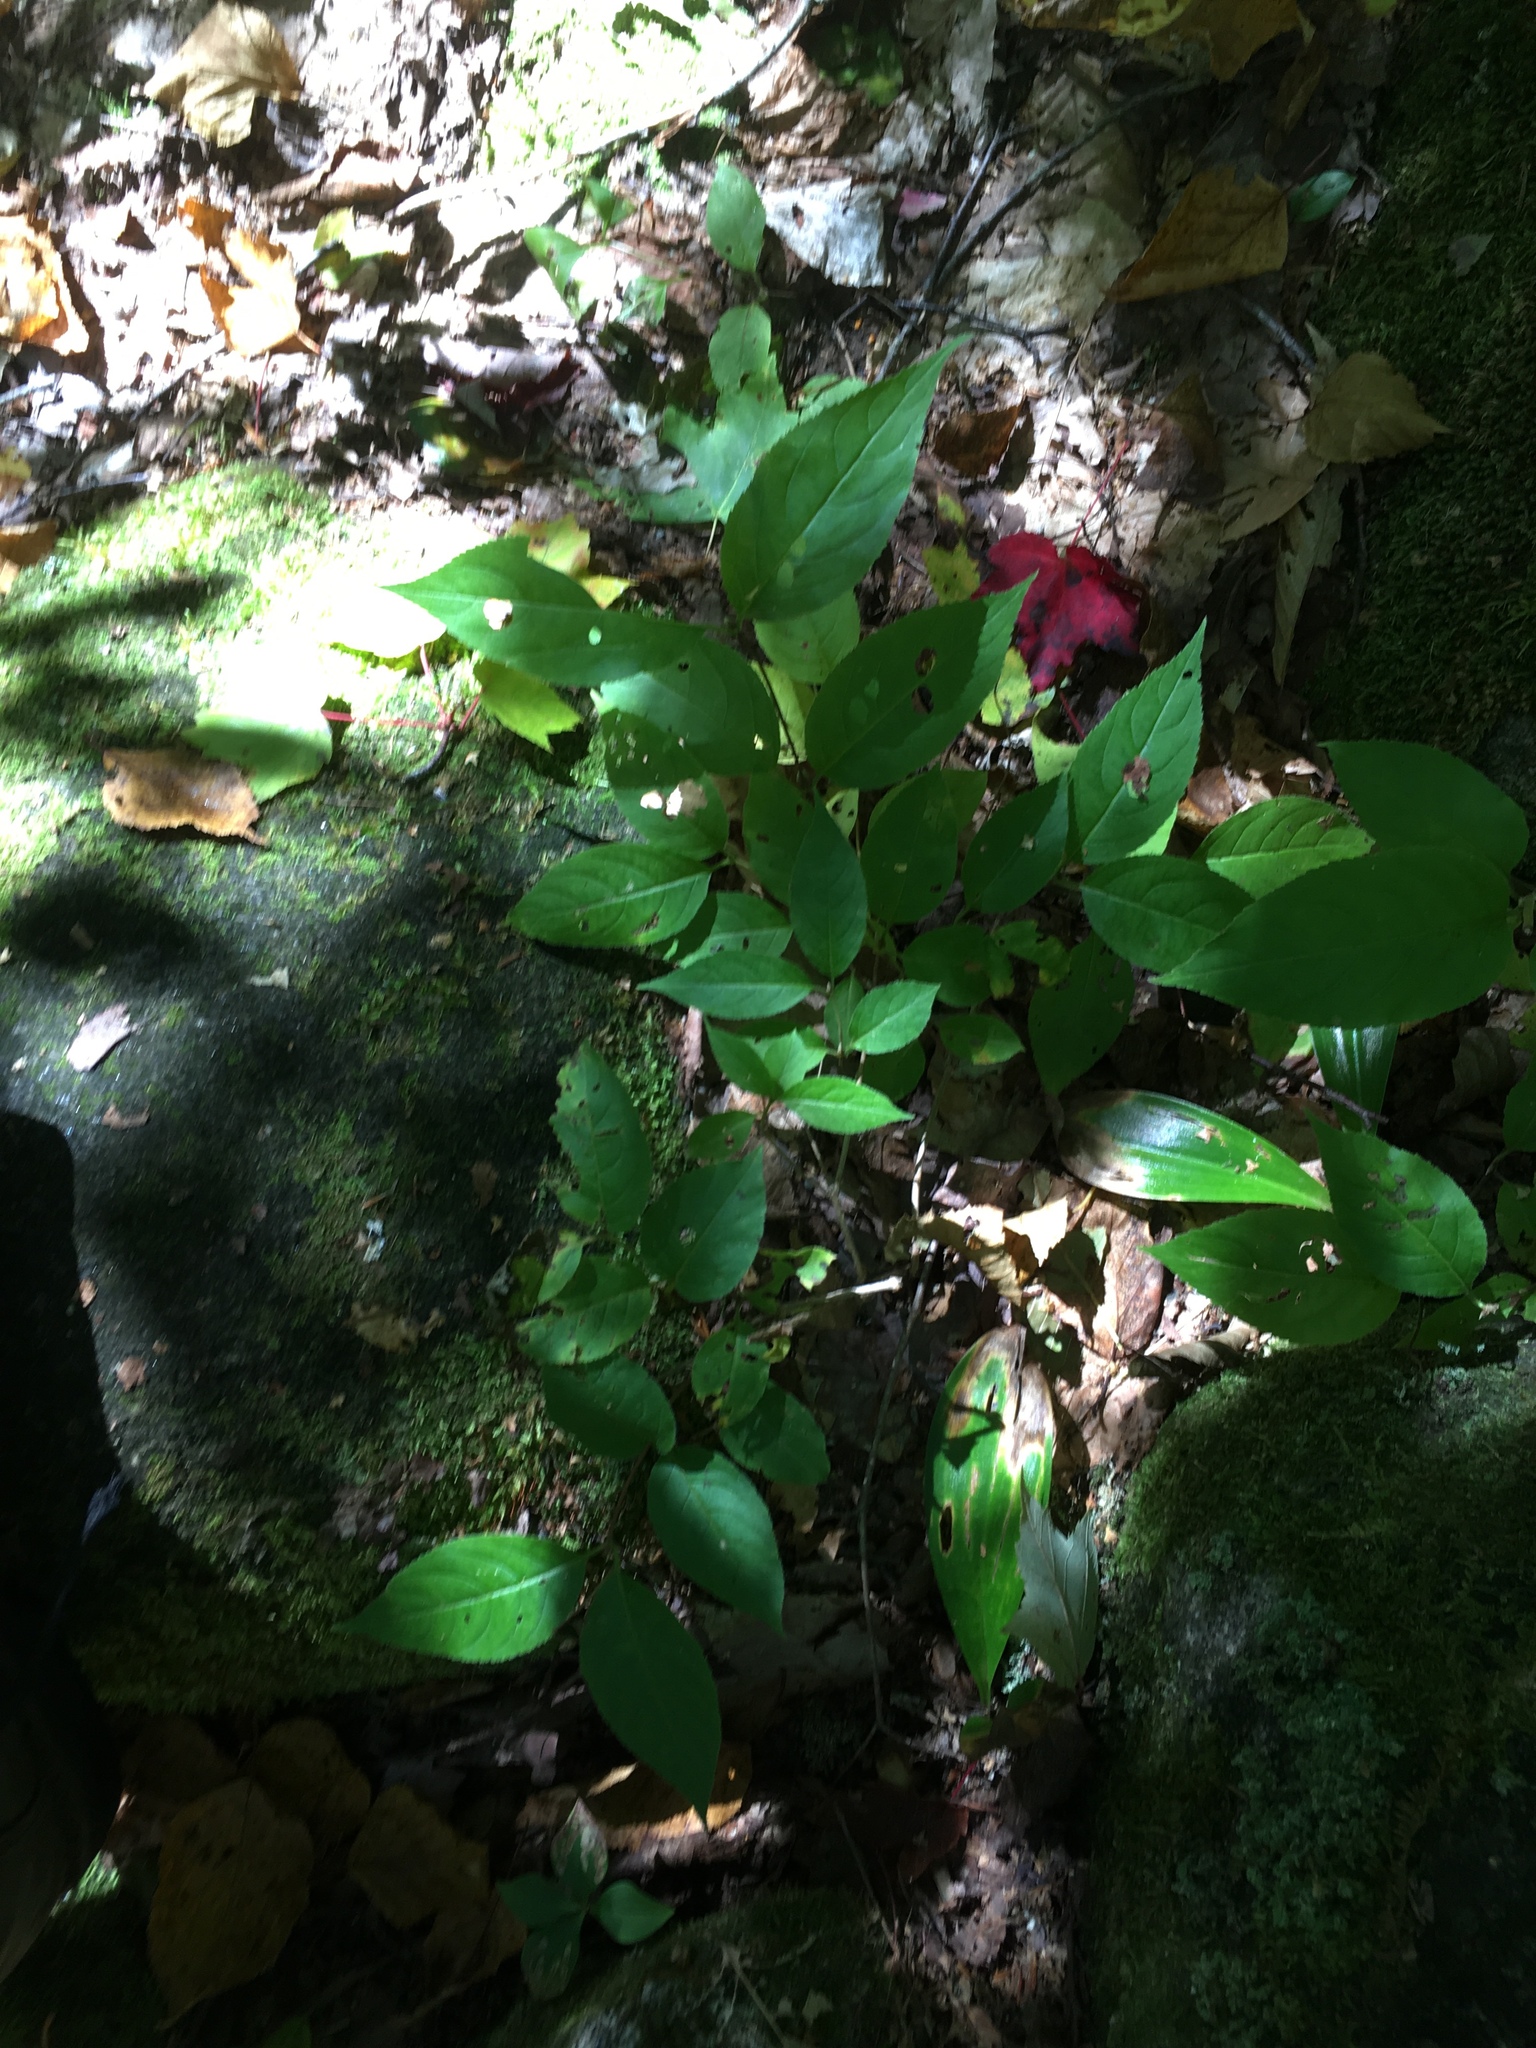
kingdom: Plantae
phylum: Tracheophyta
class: Magnoliopsida
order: Dipsacales
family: Caprifoliaceae
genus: Diervilla
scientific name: Diervilla lonicera
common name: Bush-honeysuckle
